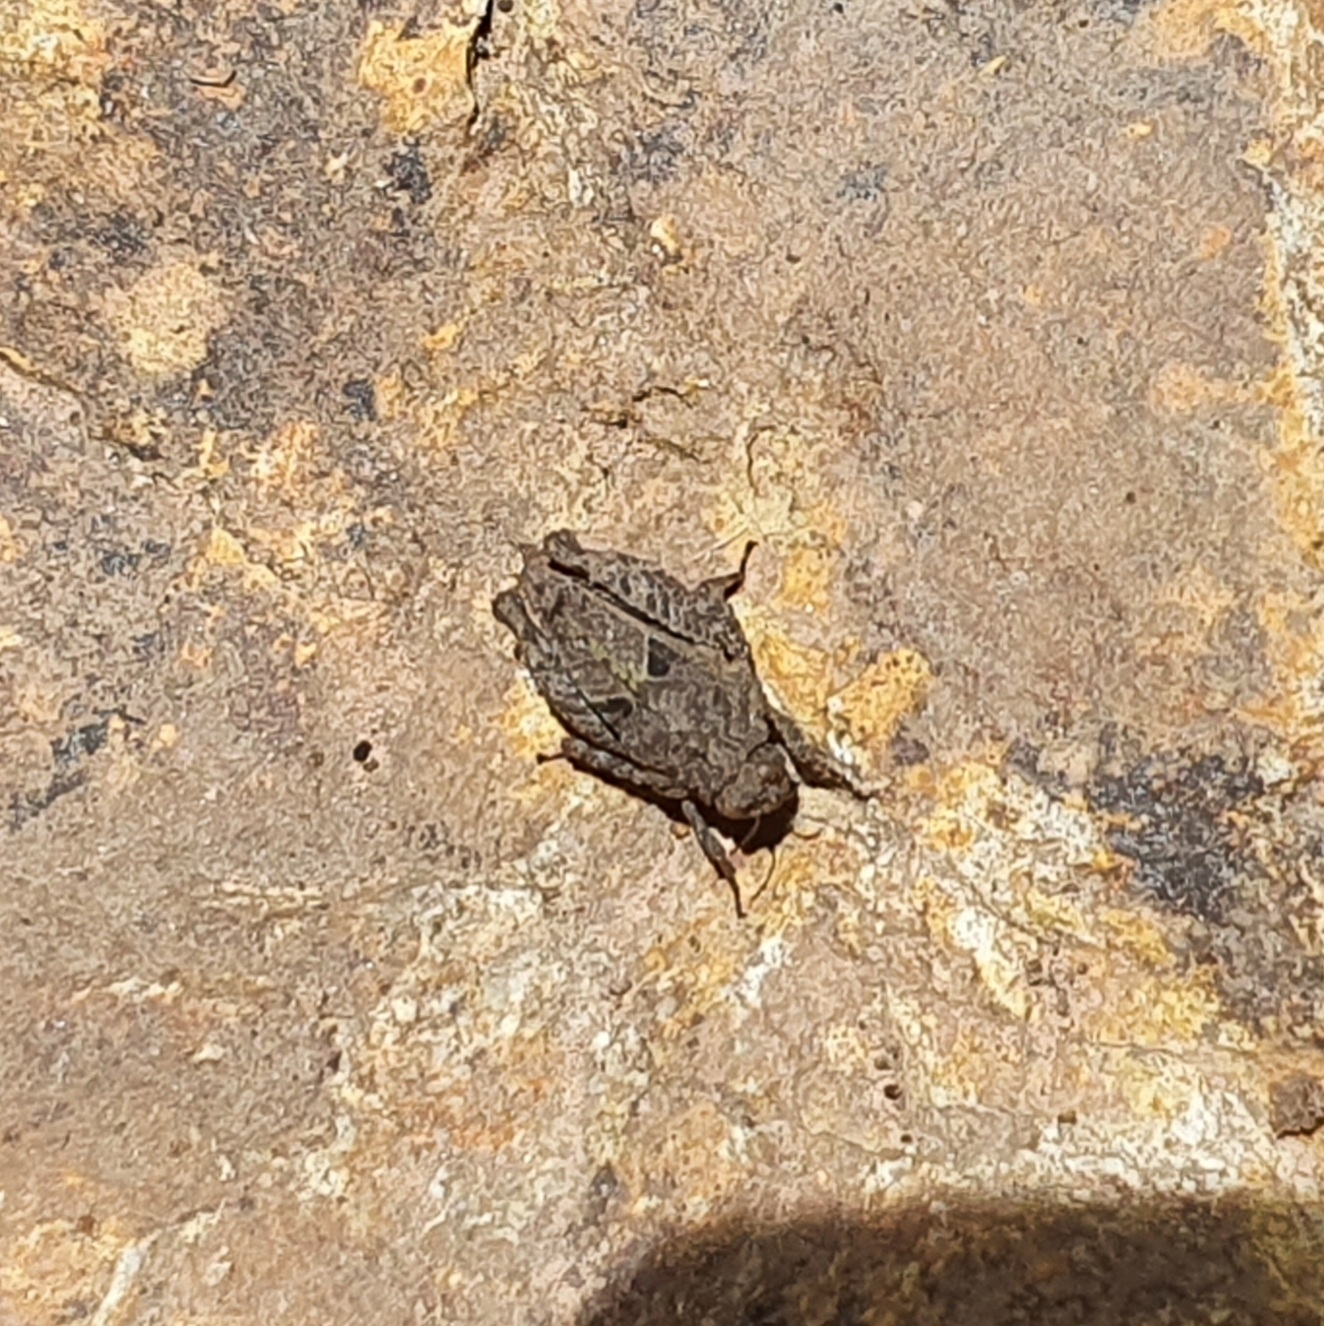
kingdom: Animalia
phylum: Arthropoda
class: Insecta
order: Orthoptera
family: Tetrigidae
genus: Tetrix
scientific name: Tetrix nodulosa
